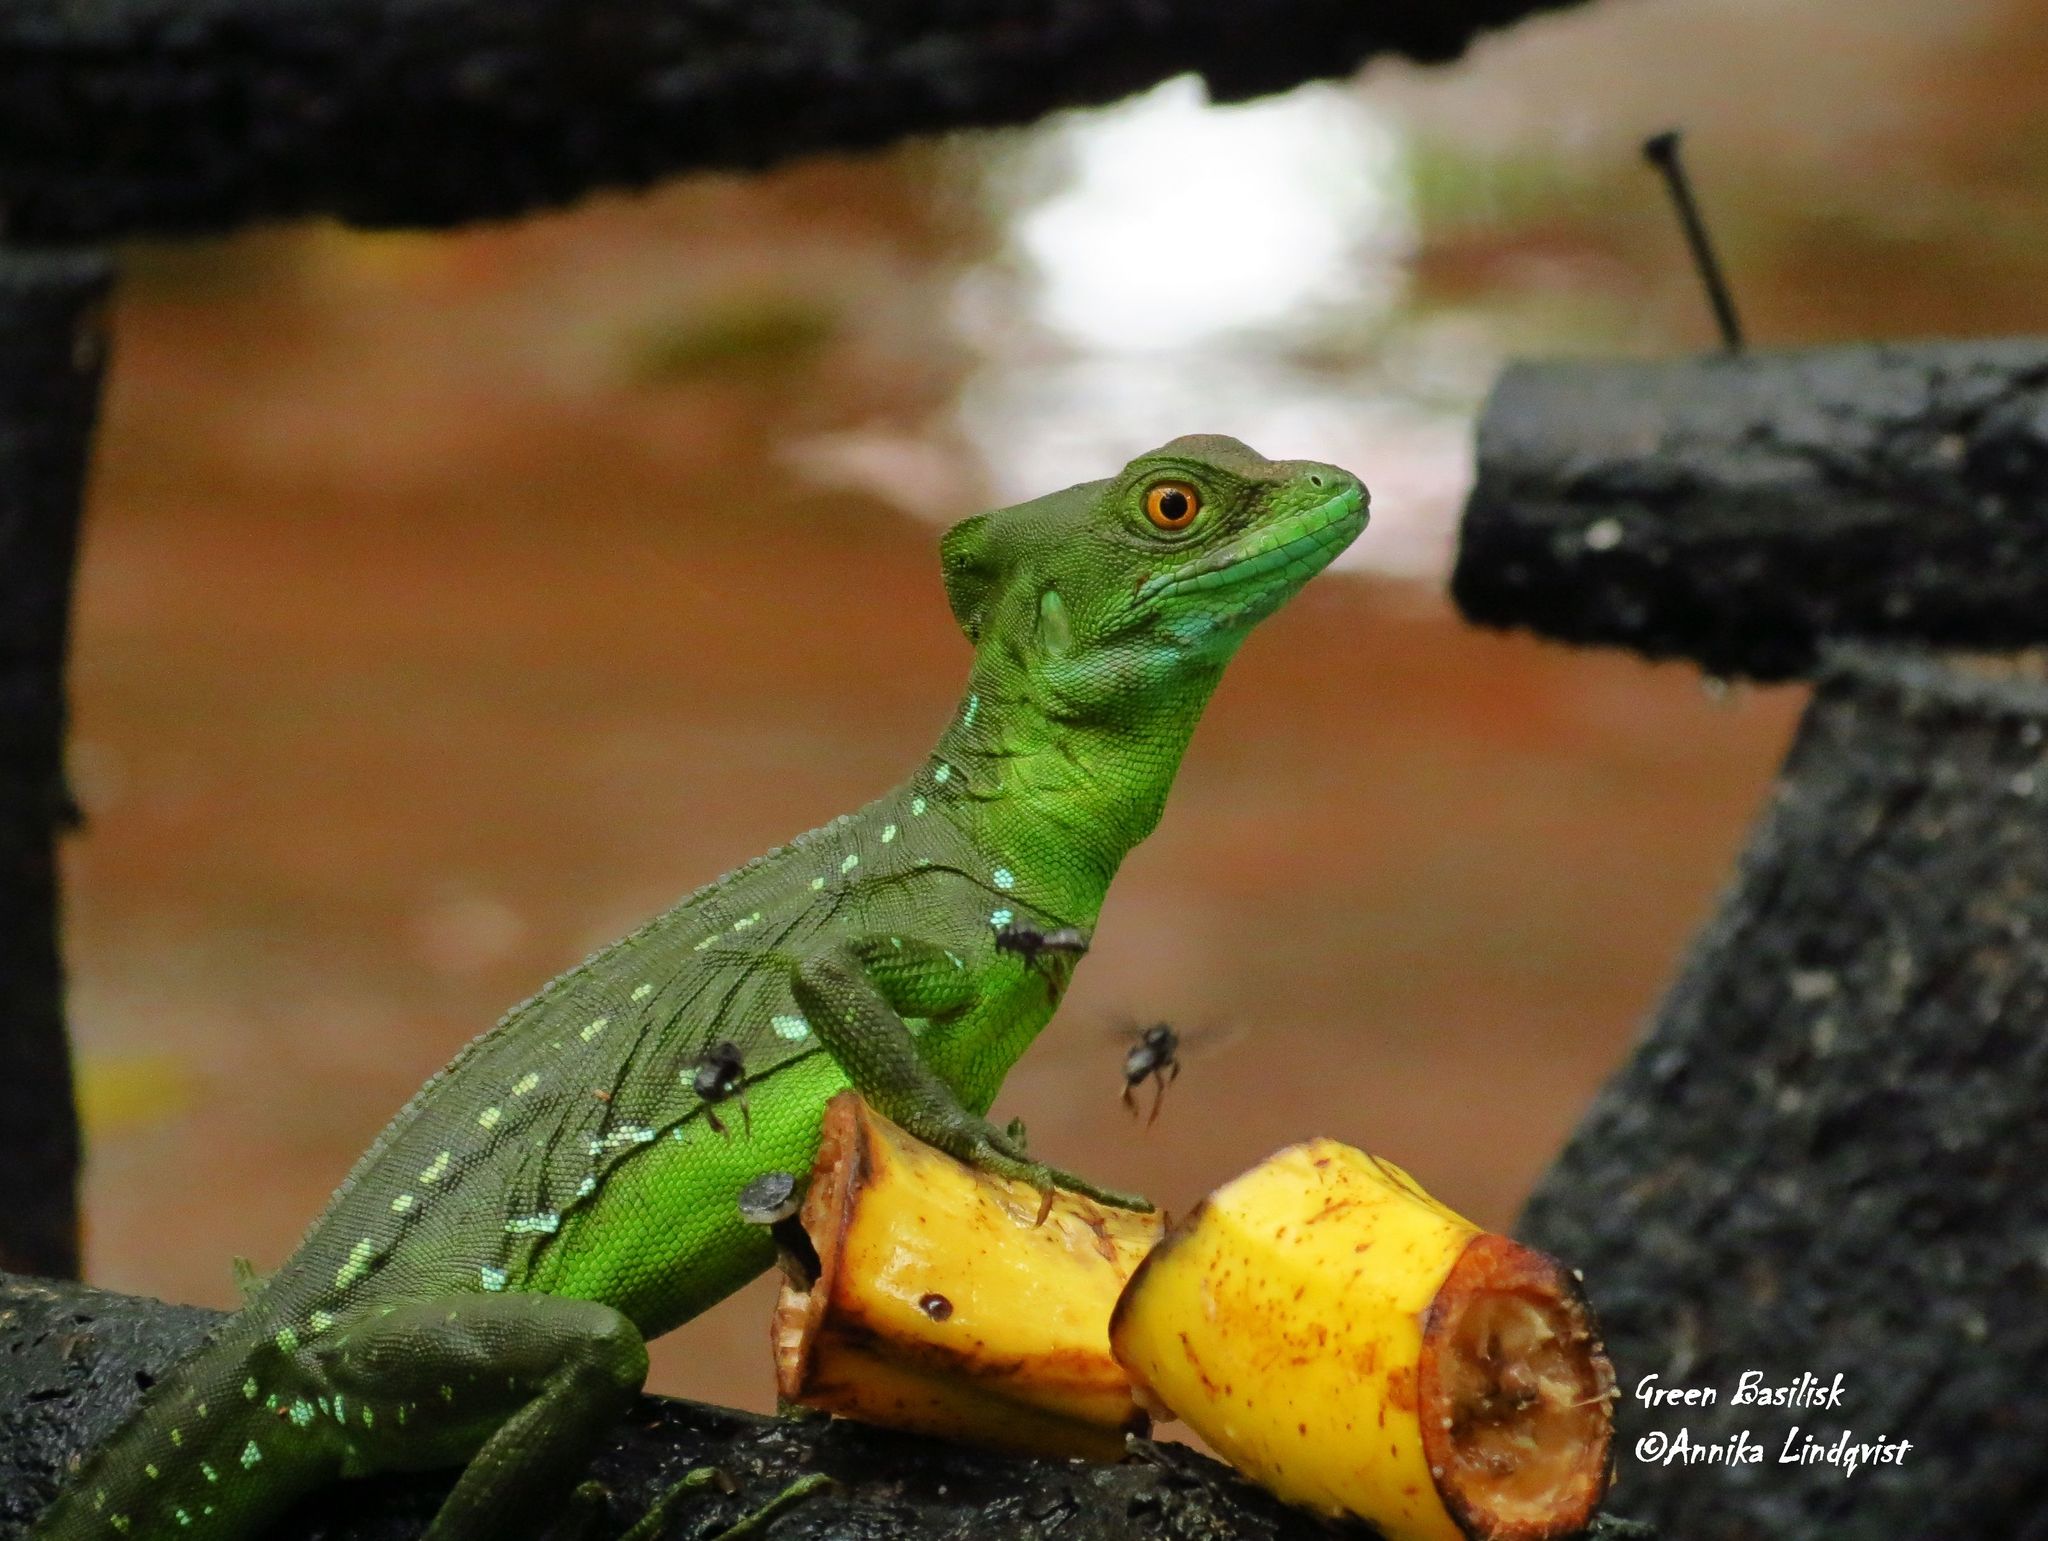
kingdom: Animalia
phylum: Chordata
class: Squamata
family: Corytophanidae
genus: Basiliscus
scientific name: Basiliscus plumifrons
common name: Green basilisk
